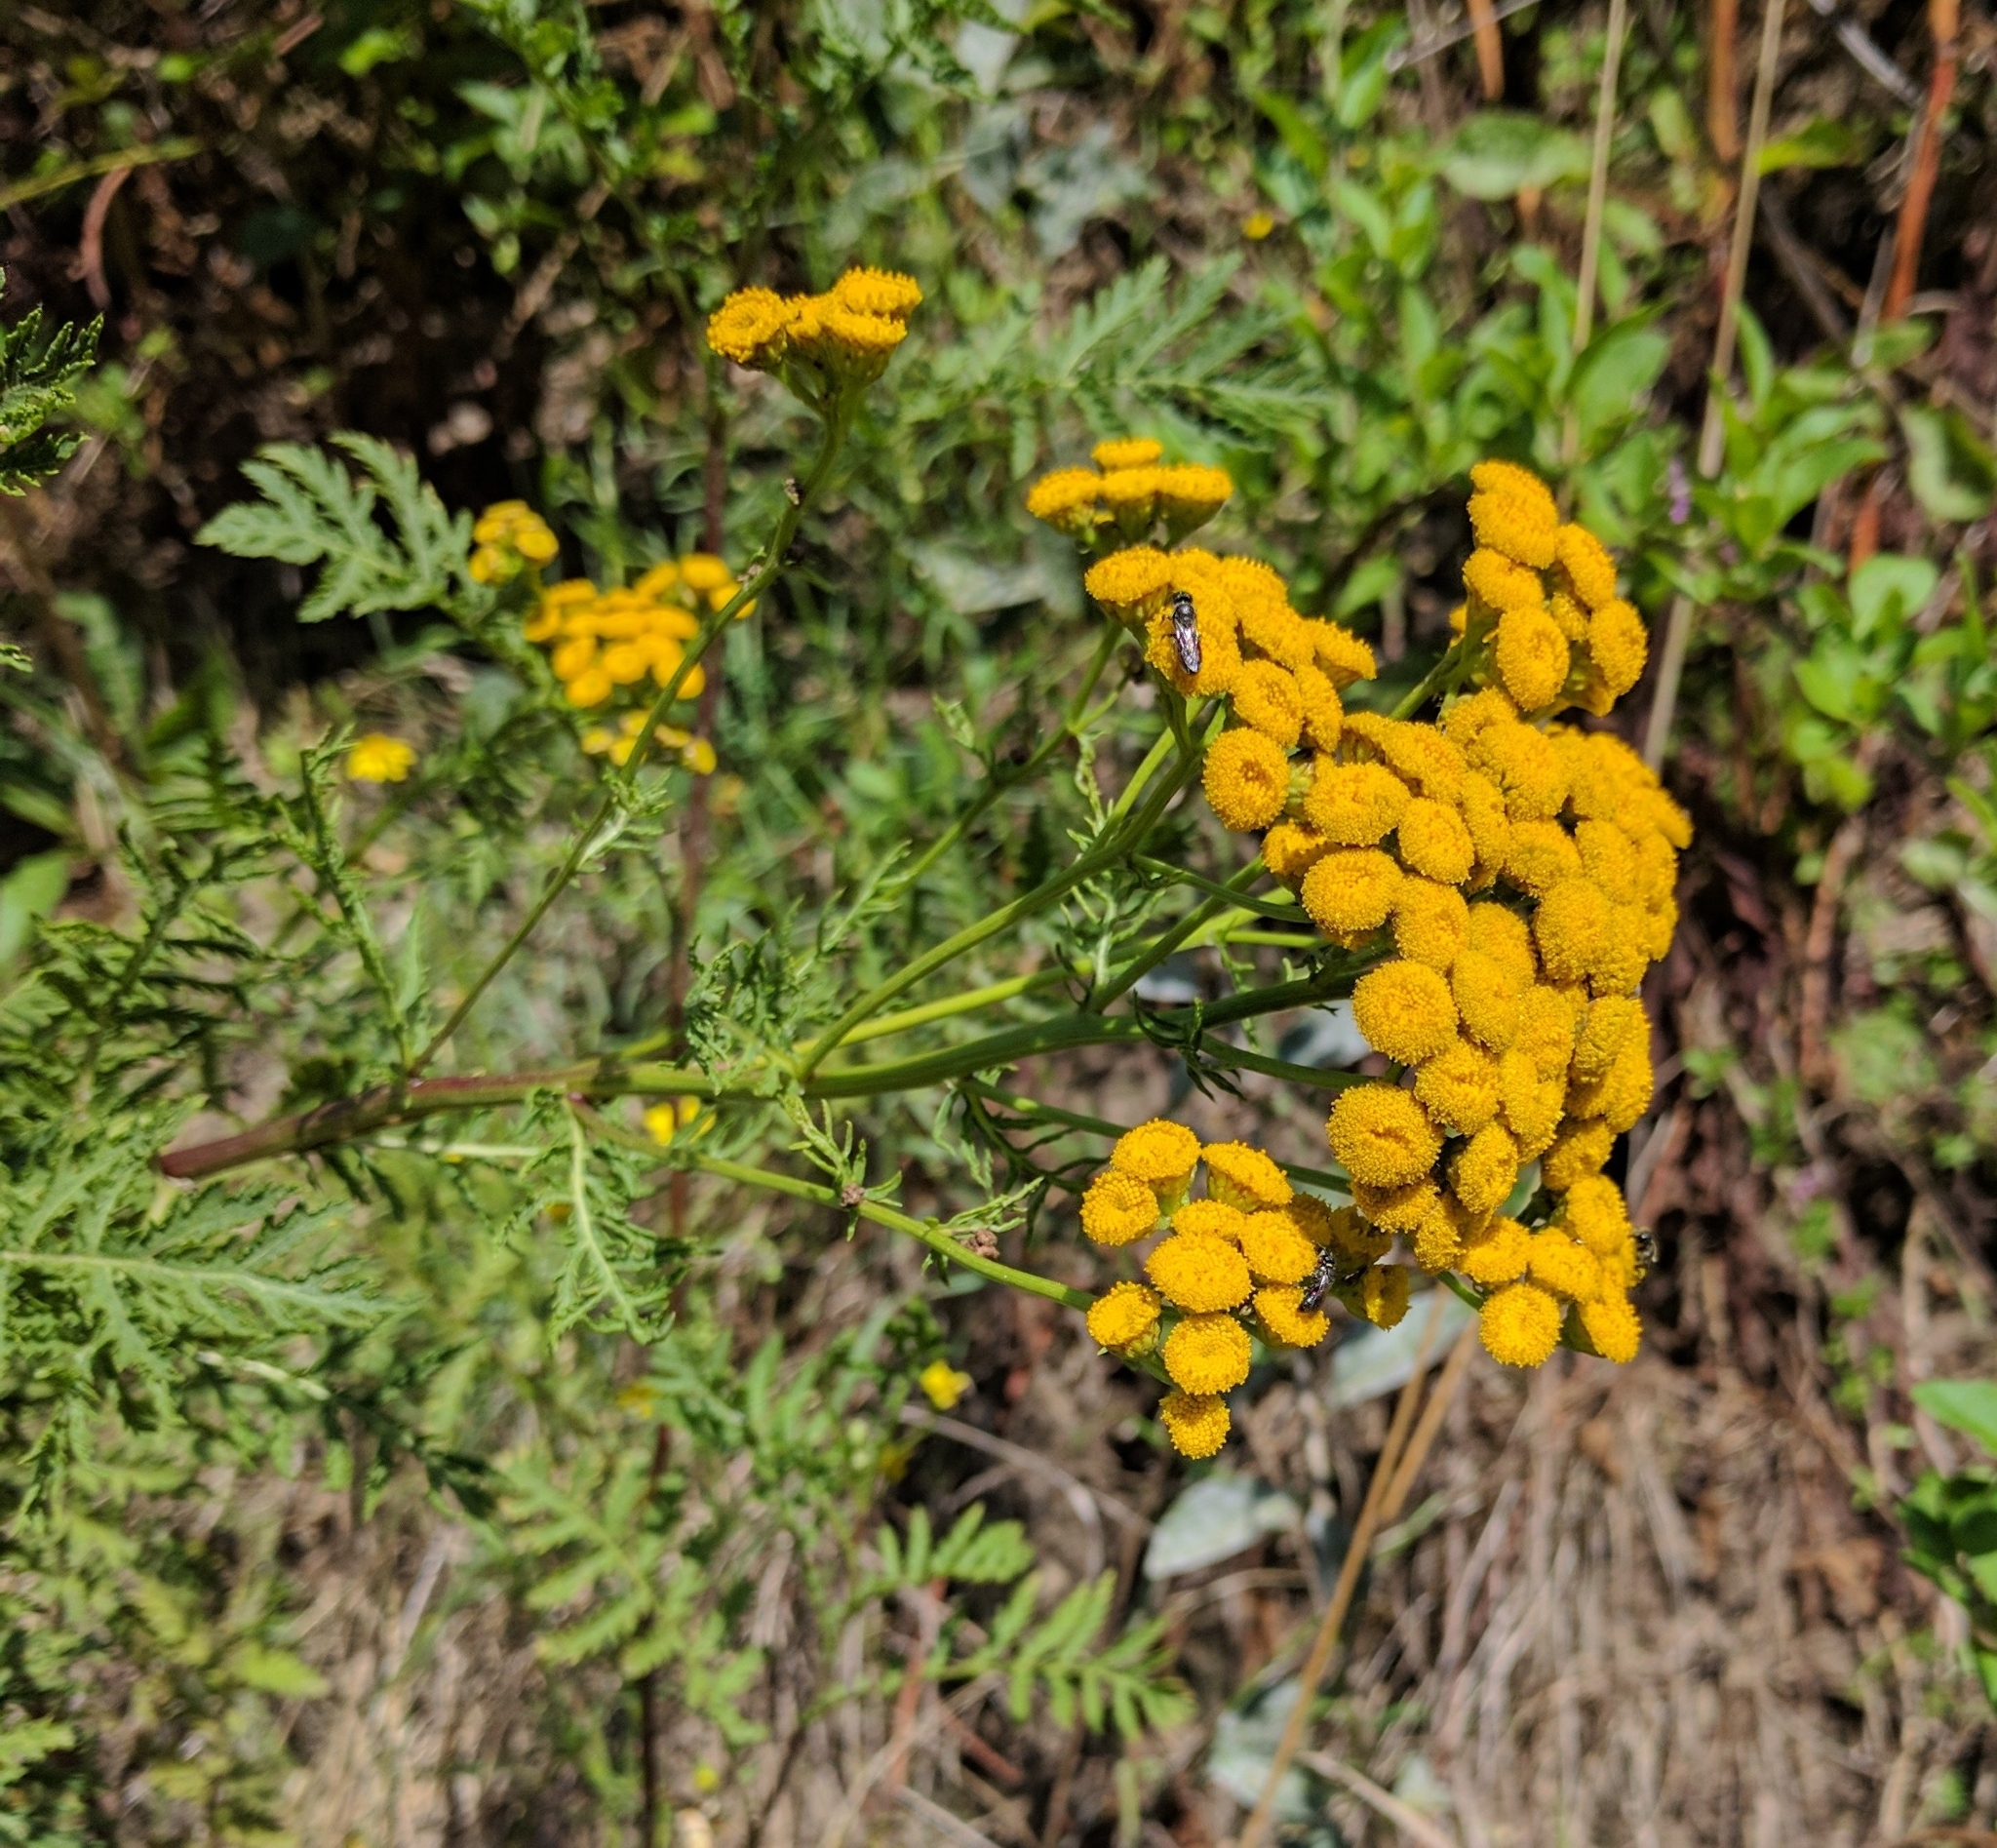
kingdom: Plantae
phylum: Tracheophyta
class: Magnoliopsida
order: Asterales
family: Asteraceae
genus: Tanacetum
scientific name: Tanacetum vulgare
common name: Common tansy
